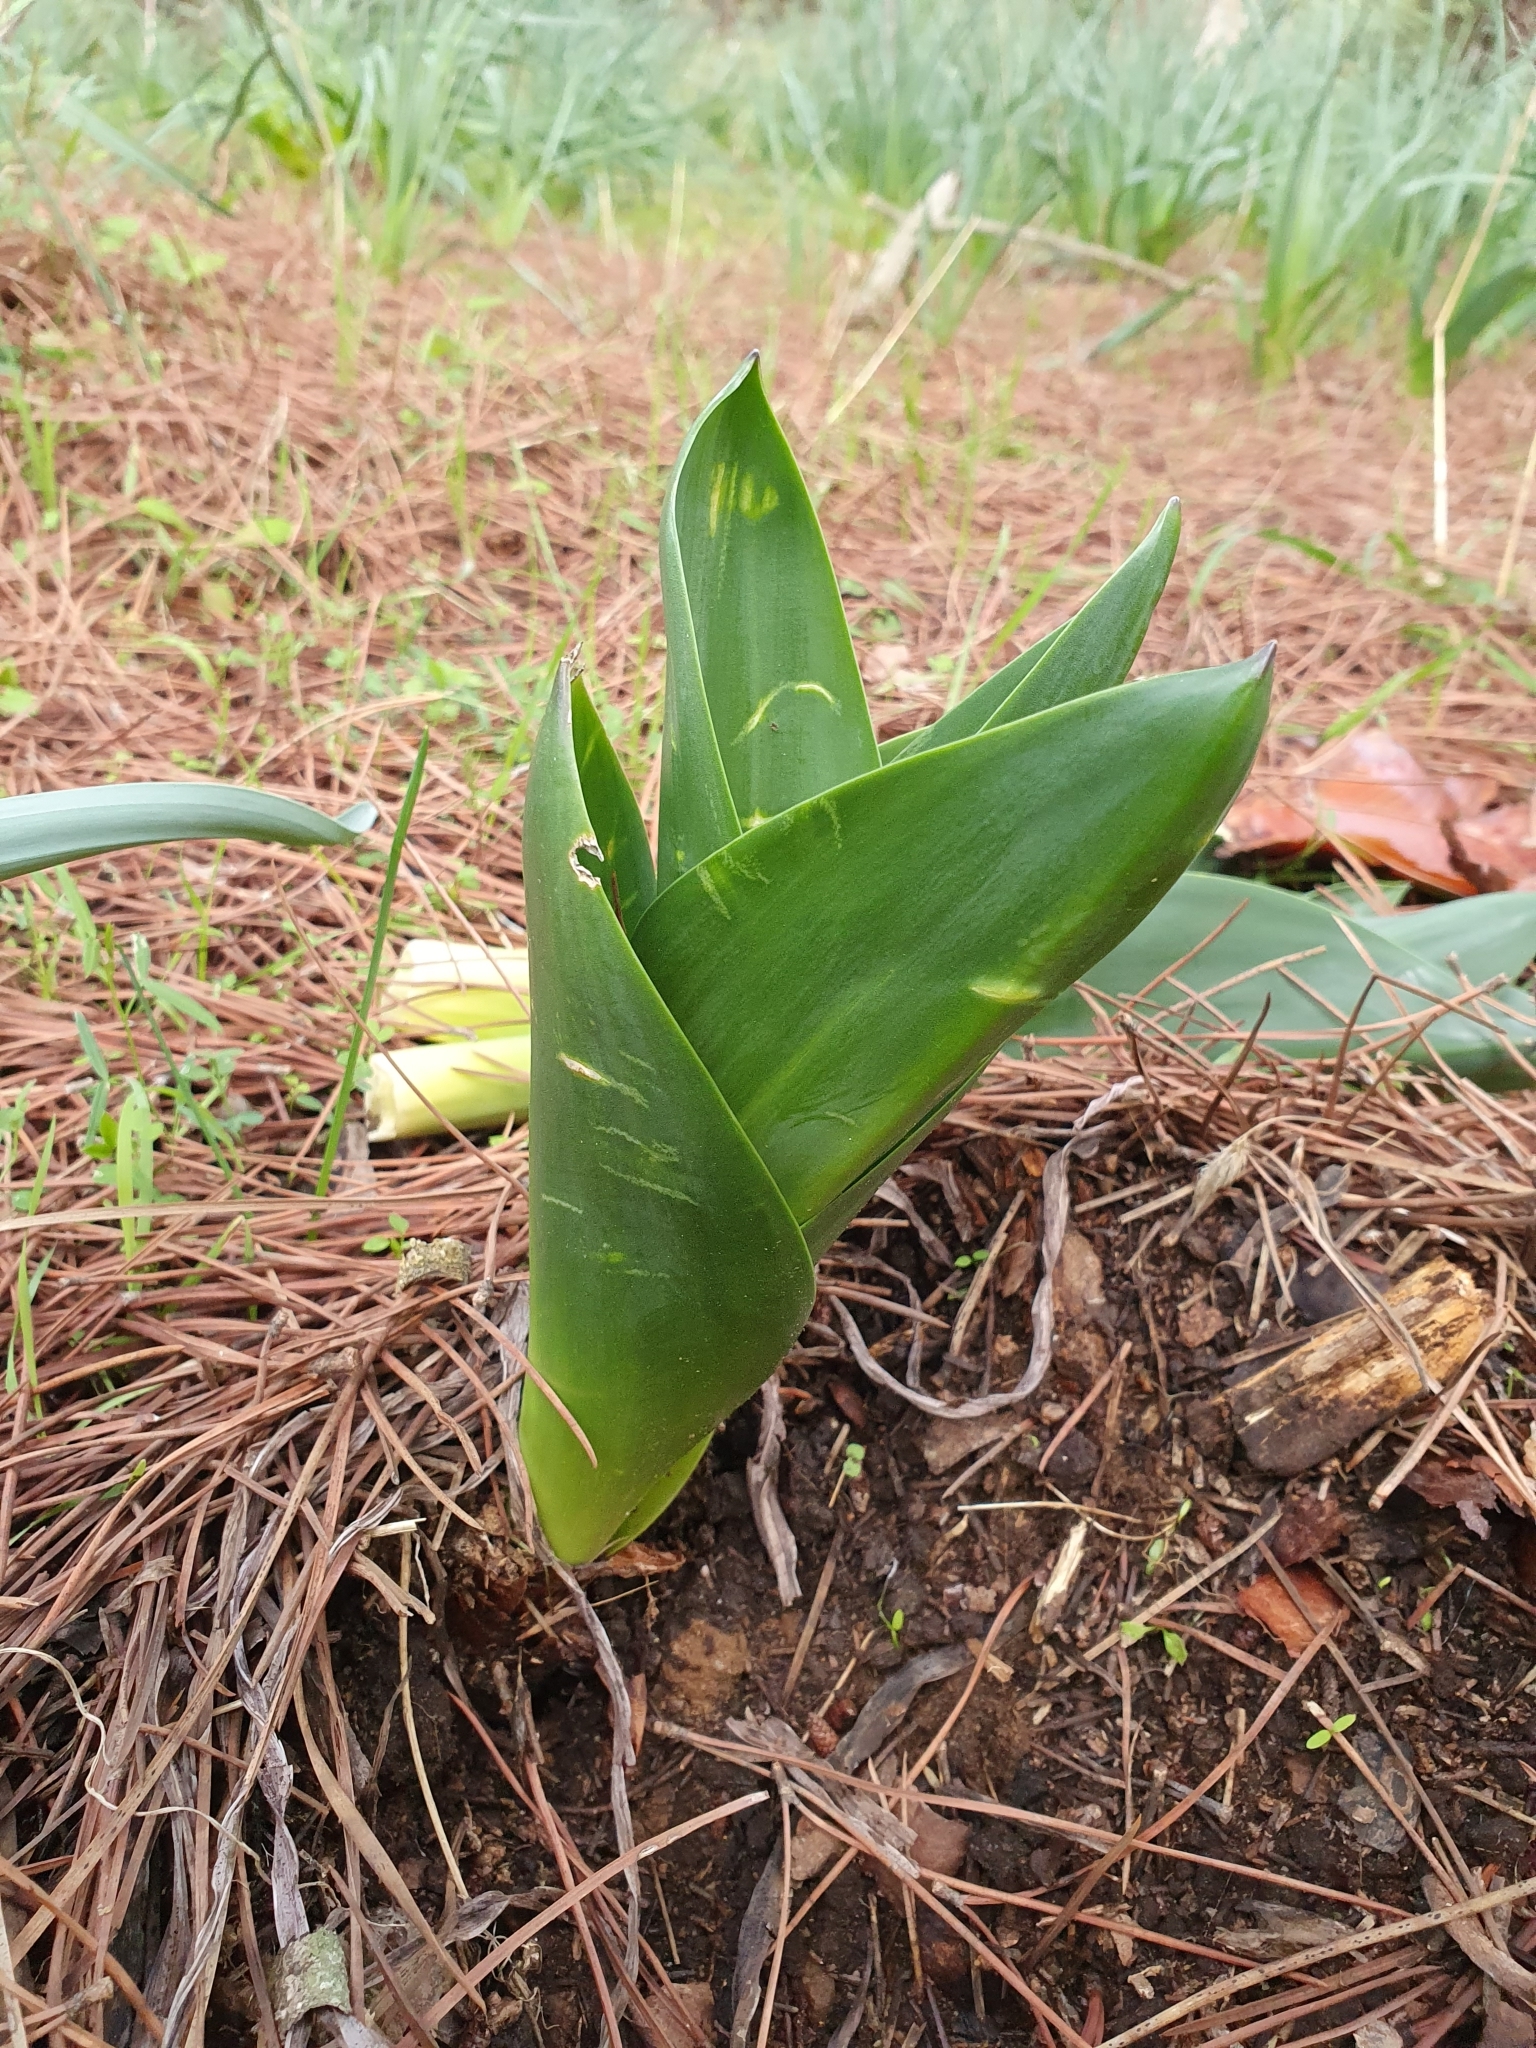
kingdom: Plantae
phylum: Tracheophyta
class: Liliopsida
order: Asparagales
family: Asparagaceae
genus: Drimia
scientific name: Drimia numidica
